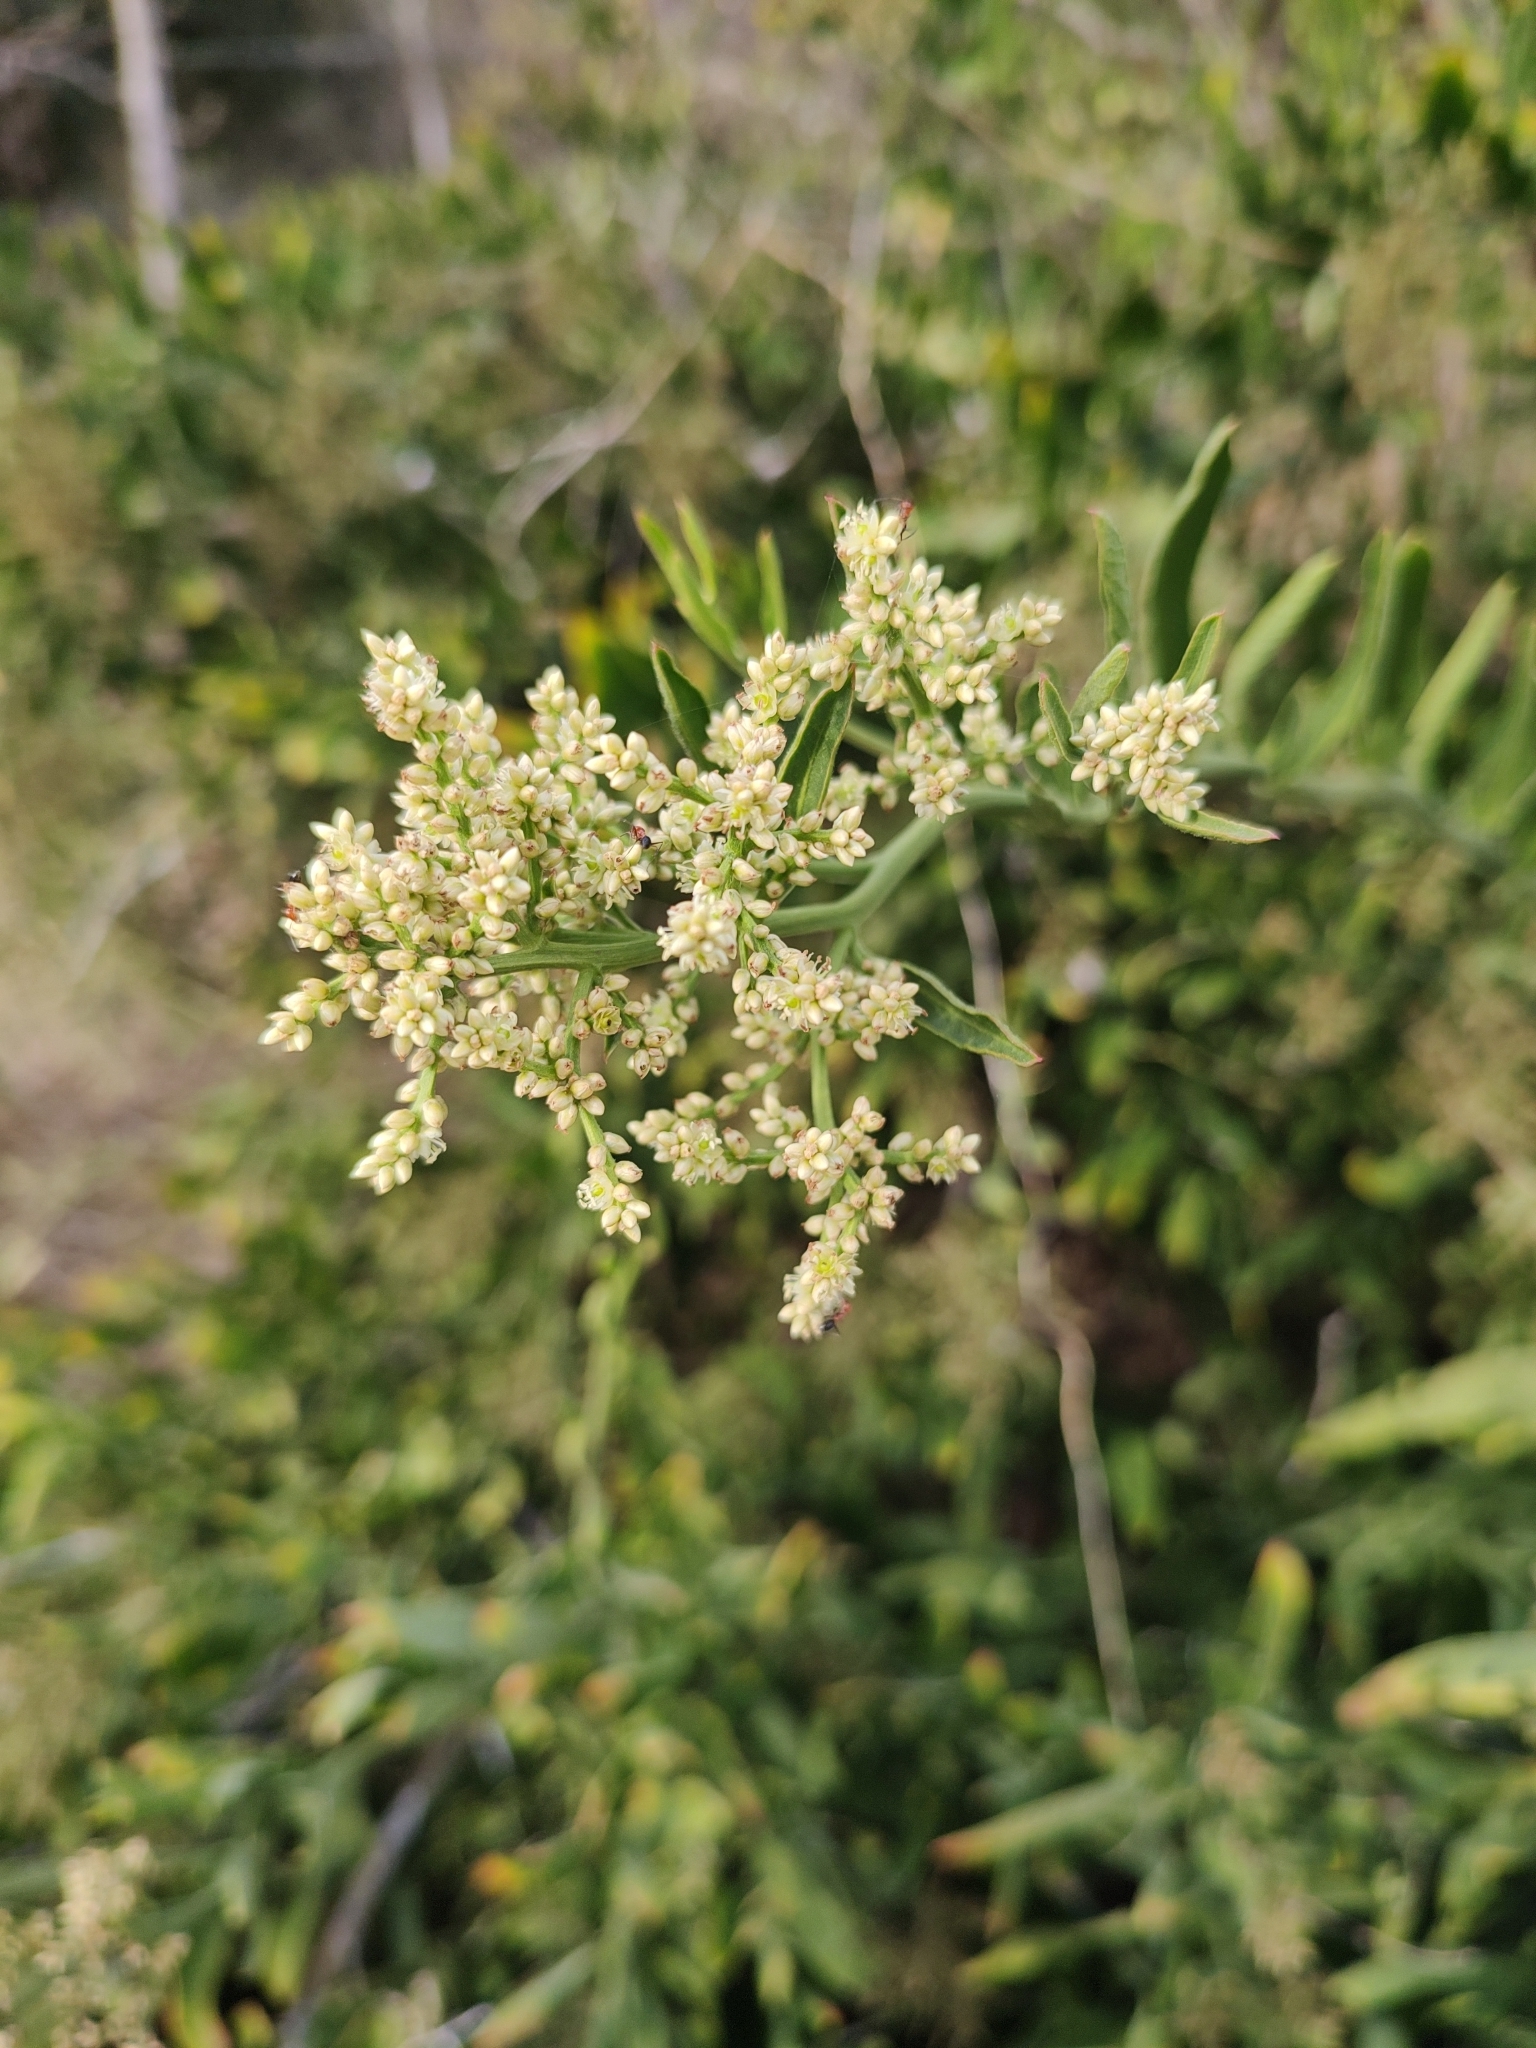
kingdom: Plantae
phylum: Tracheophyta
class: Magnoliopsida
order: Caryophyllales
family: Amaranthaceae
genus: Celosia
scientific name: Celosia floribunda
